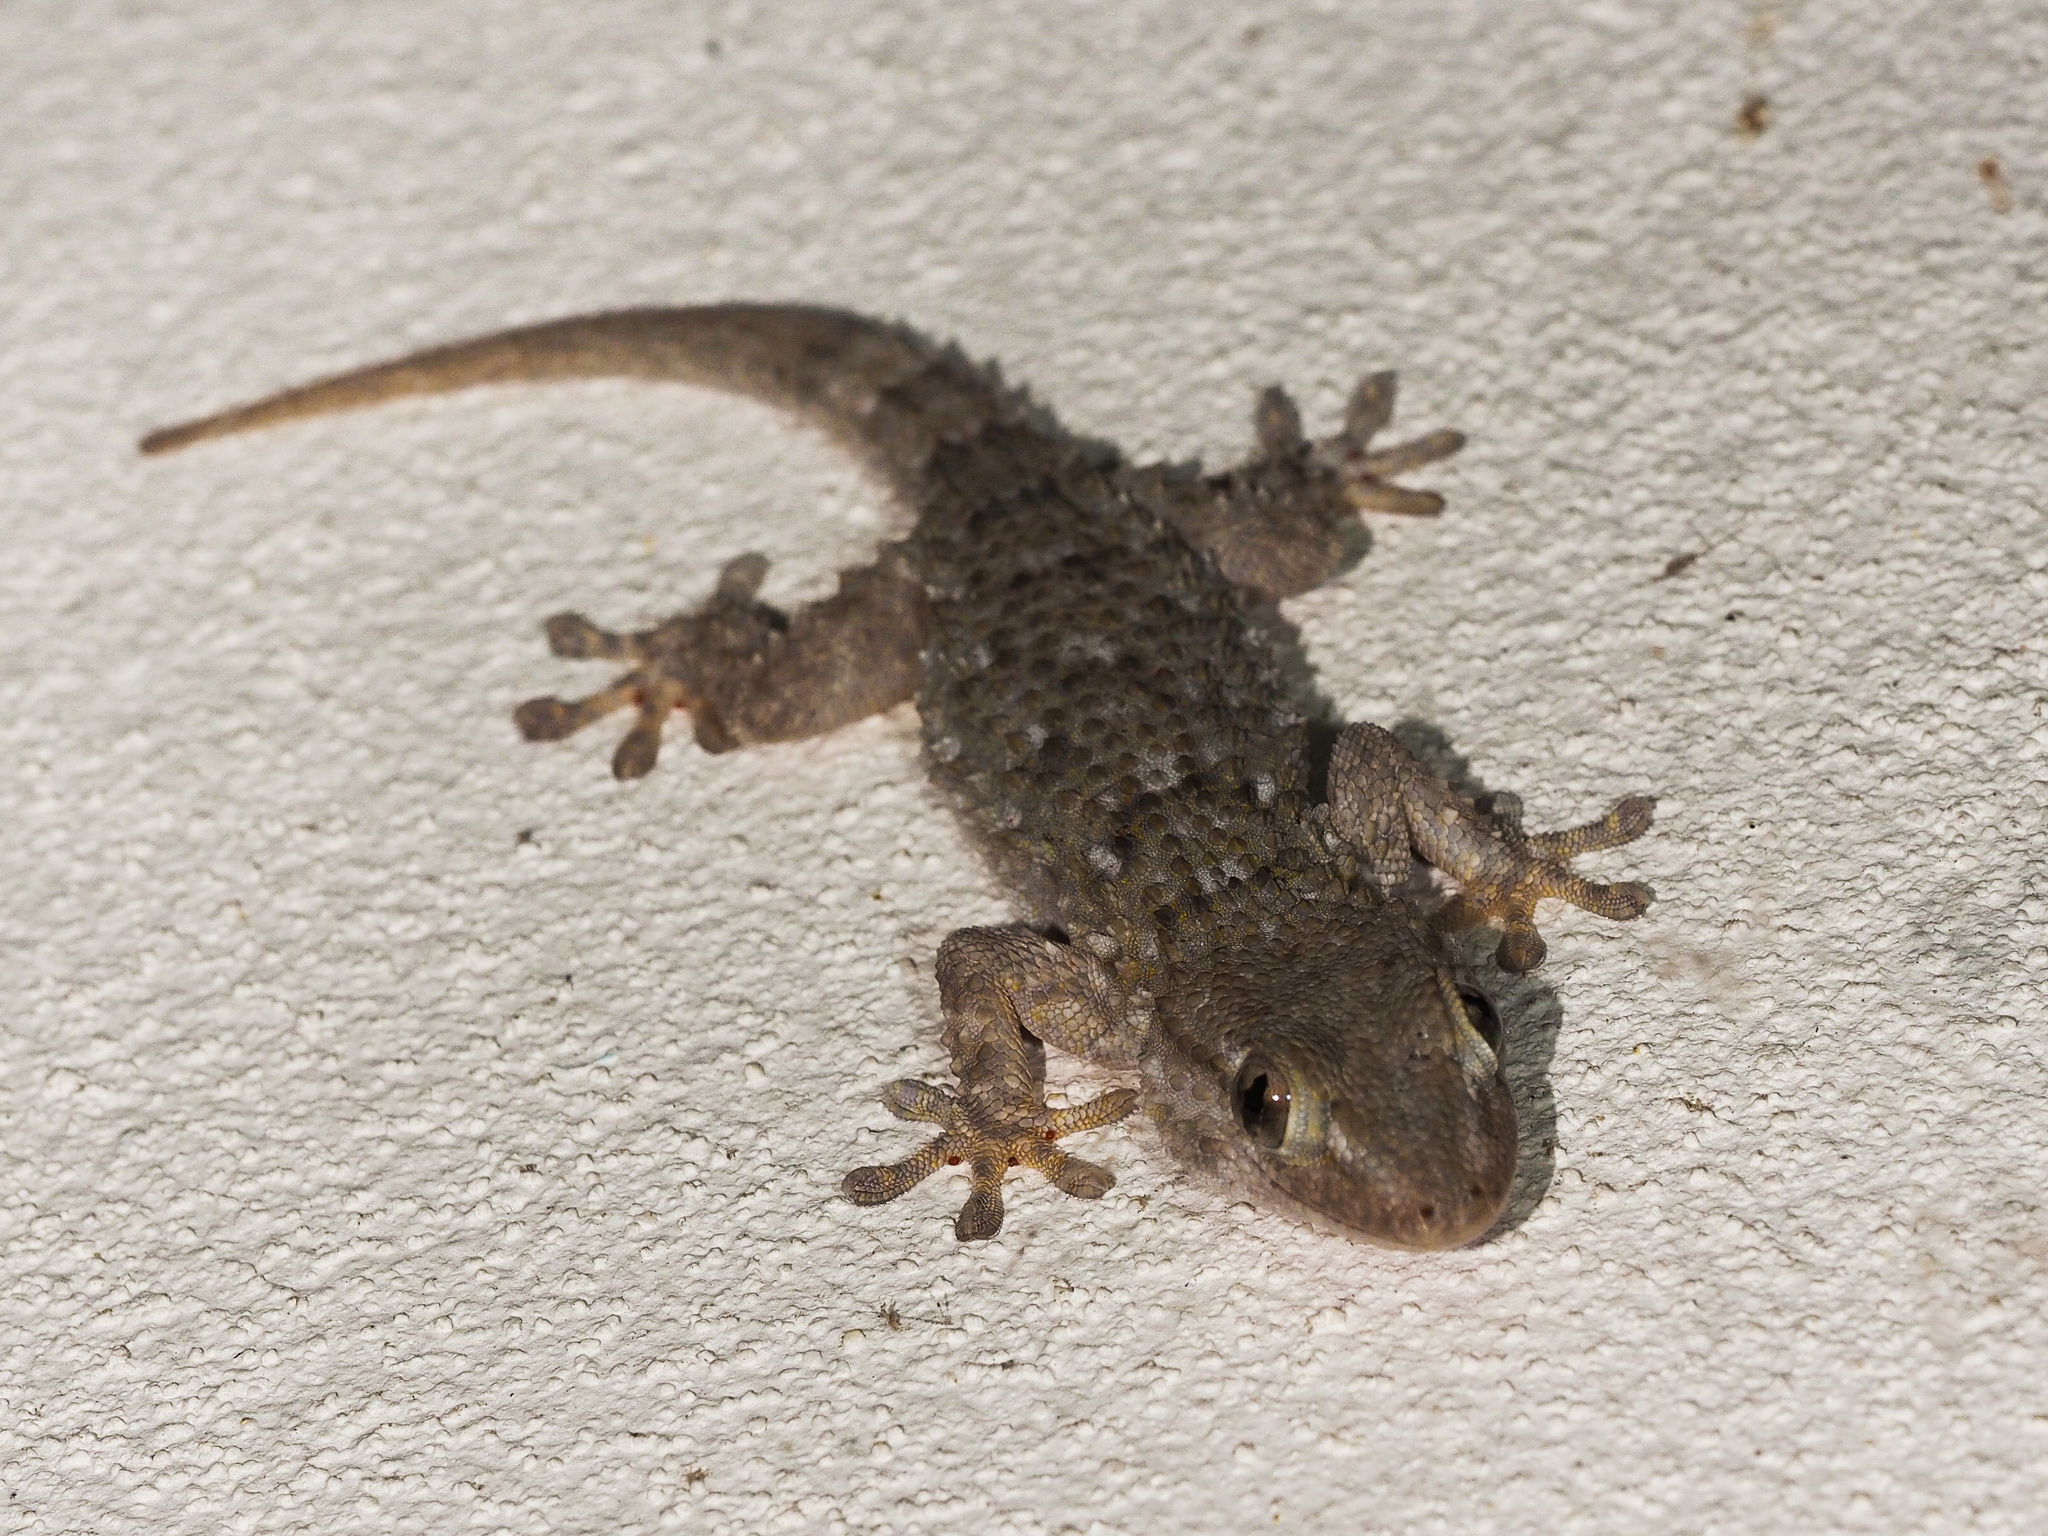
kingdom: Animalia
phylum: Chordata
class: Squamata
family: Phyllodactylidae
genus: Tarentola
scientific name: Tarentola mauritanica
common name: Moorish gecko
